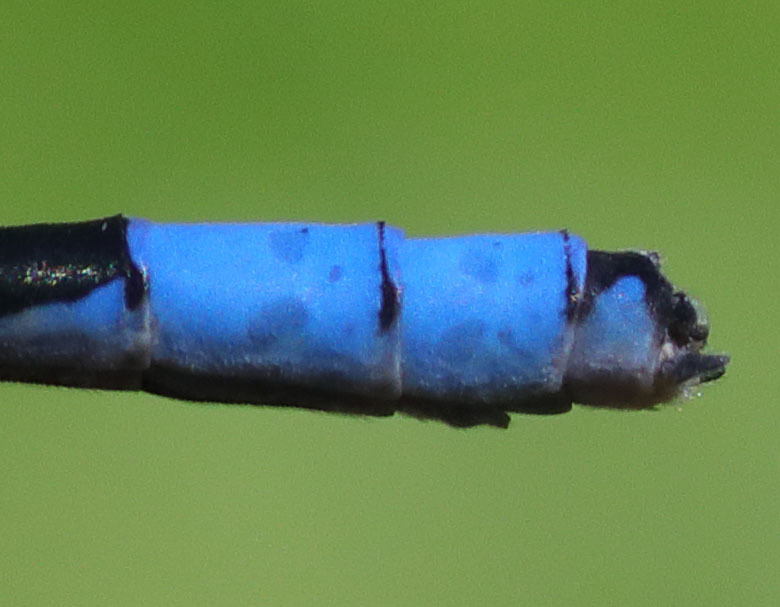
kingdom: Animalia
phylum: Arthropoda
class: Insecta
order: Odonata
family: Coenagrionidae
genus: Enallagma
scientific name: Enallagma annexum
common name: Northern bluet
